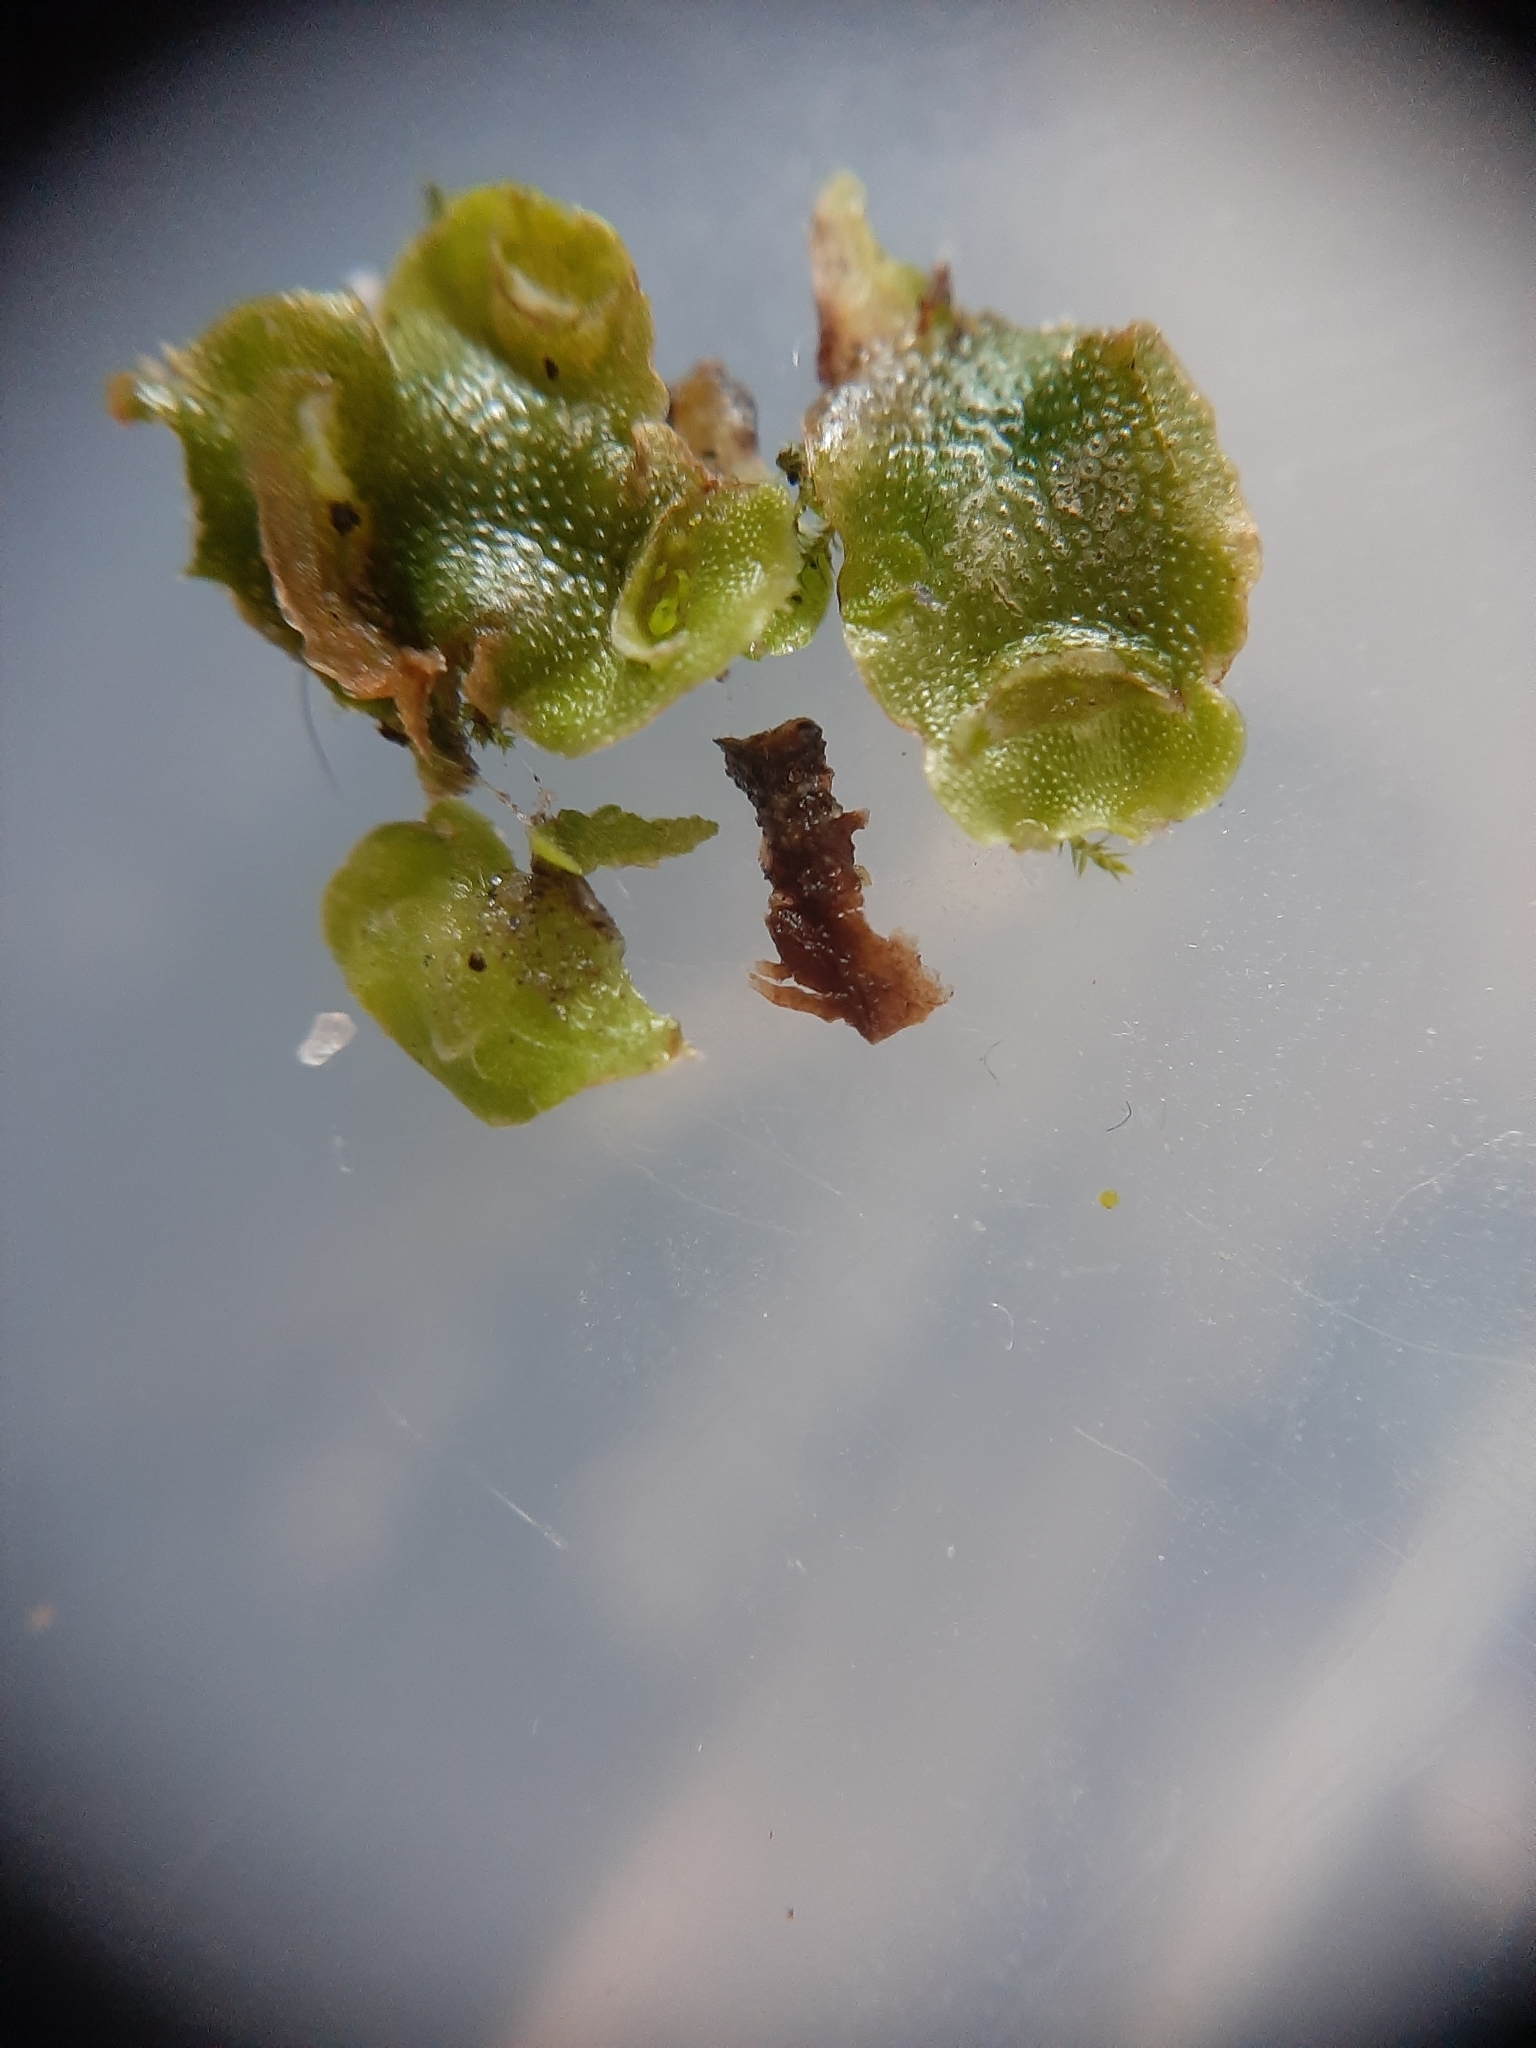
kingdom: Plantae
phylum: Marchantiophyta
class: Marchantiopsida
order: Lunulariales
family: Lunulariaceae
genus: Lunularia
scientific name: Lunularia cruciata
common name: Crescent-cup liverwort
